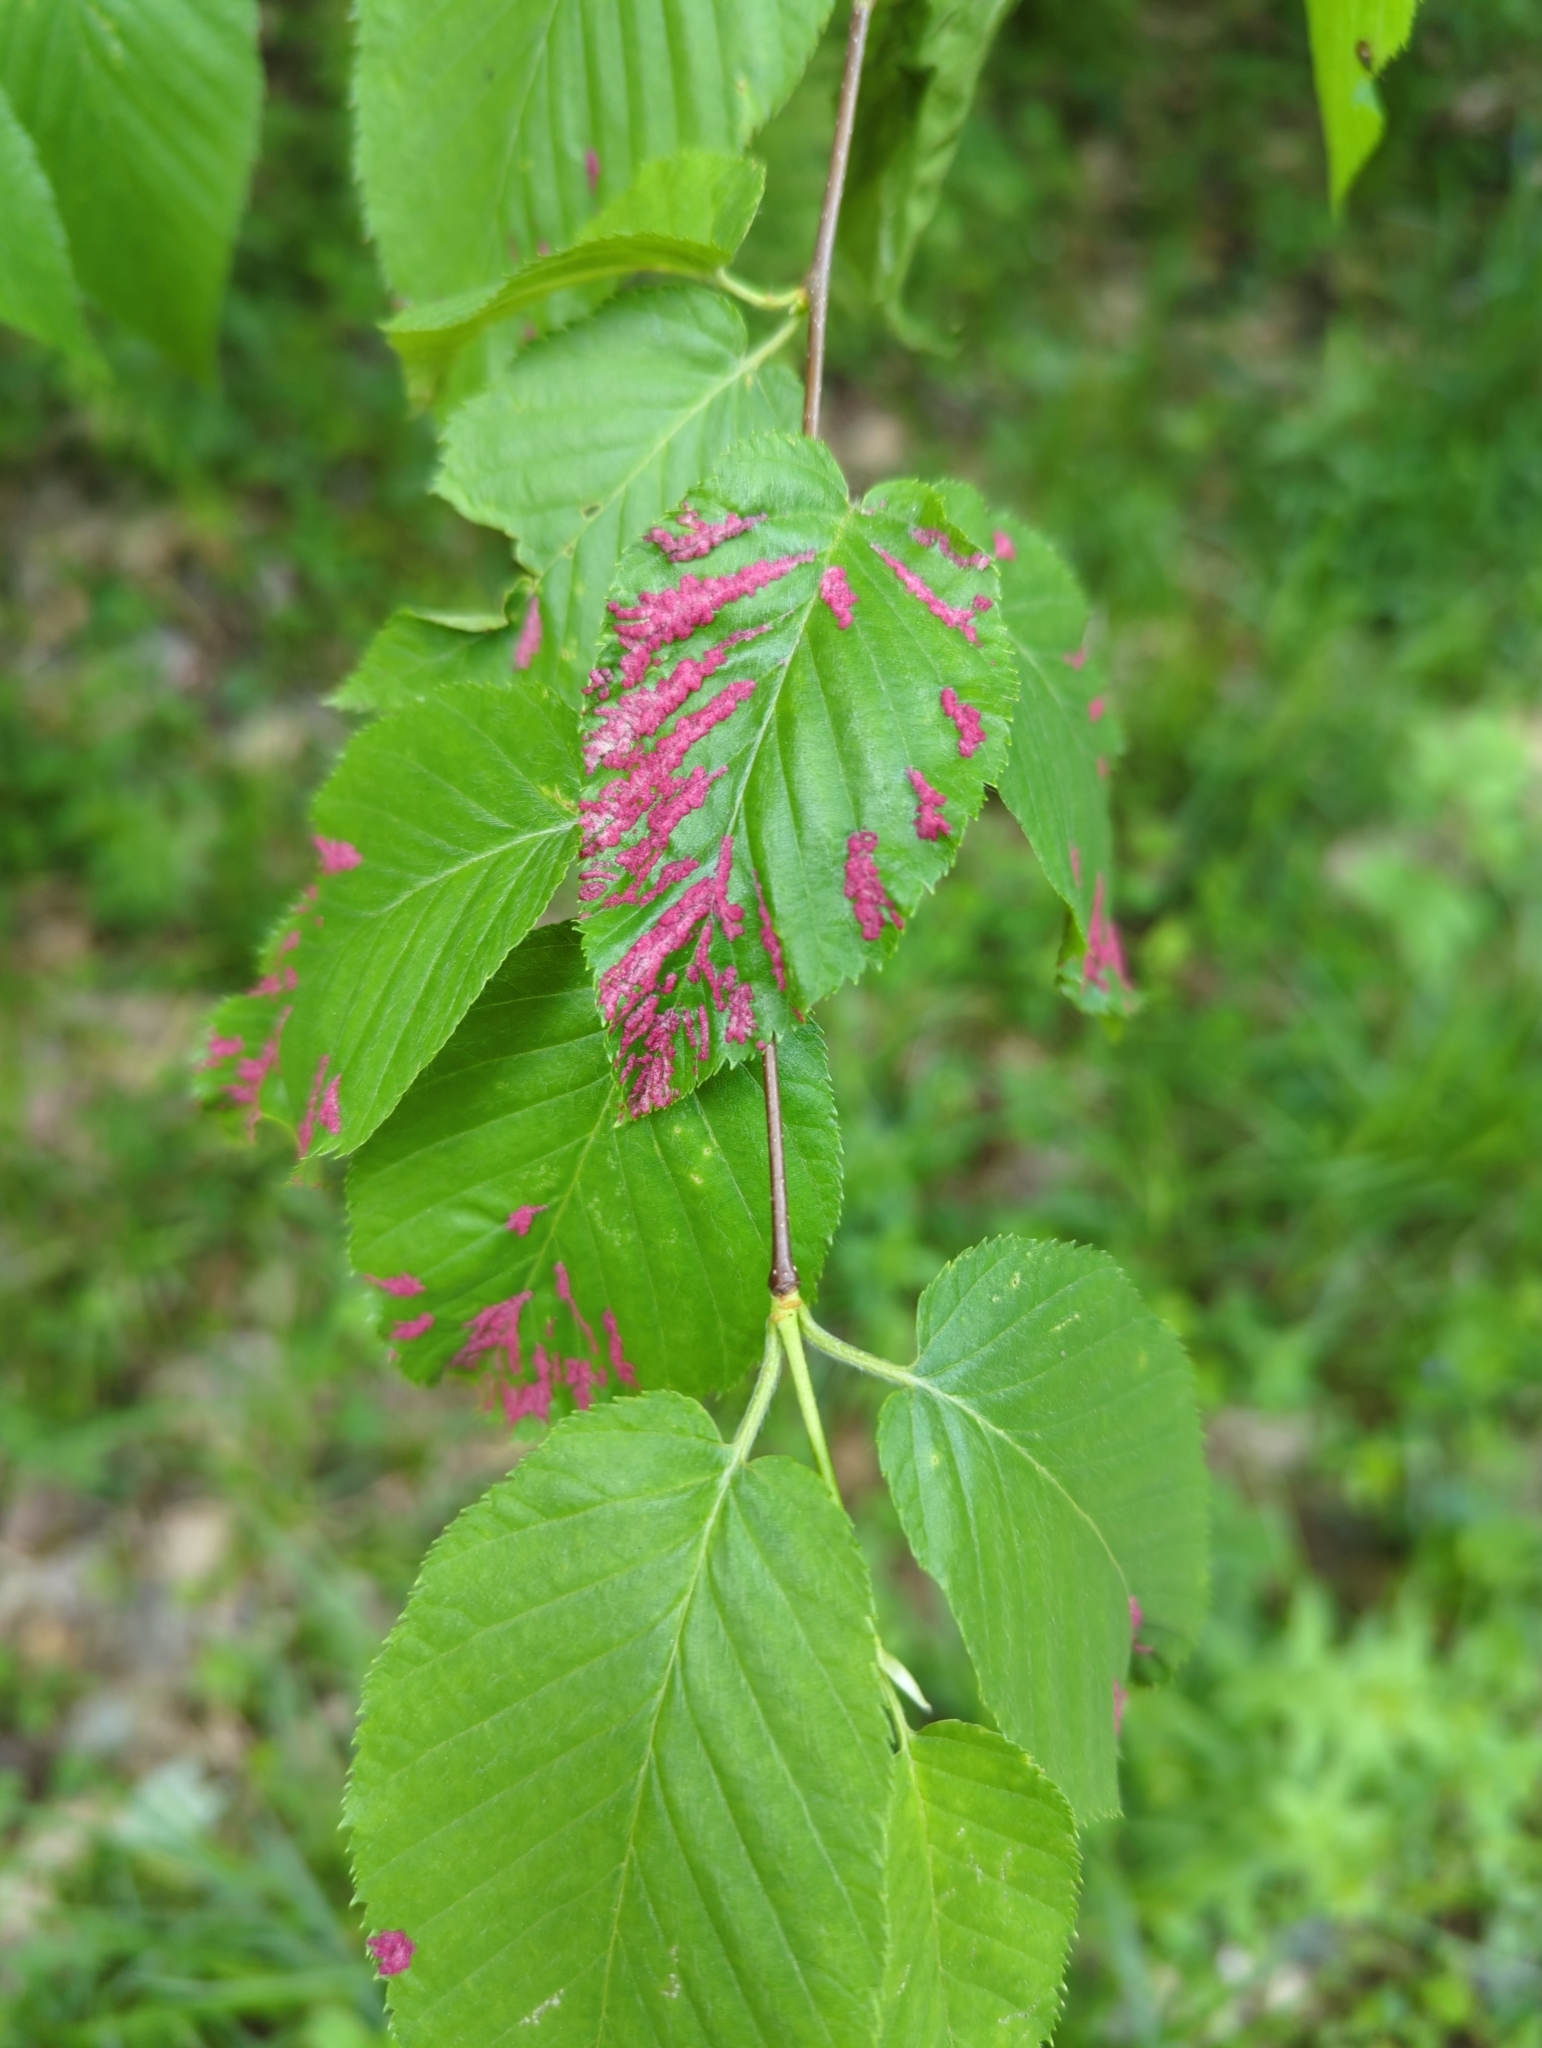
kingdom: Animalia
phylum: Arthropoda
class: Arachnida
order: Trombidiformes
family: Eriophyidae
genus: Acalitus
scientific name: Acalitus longisetosus
